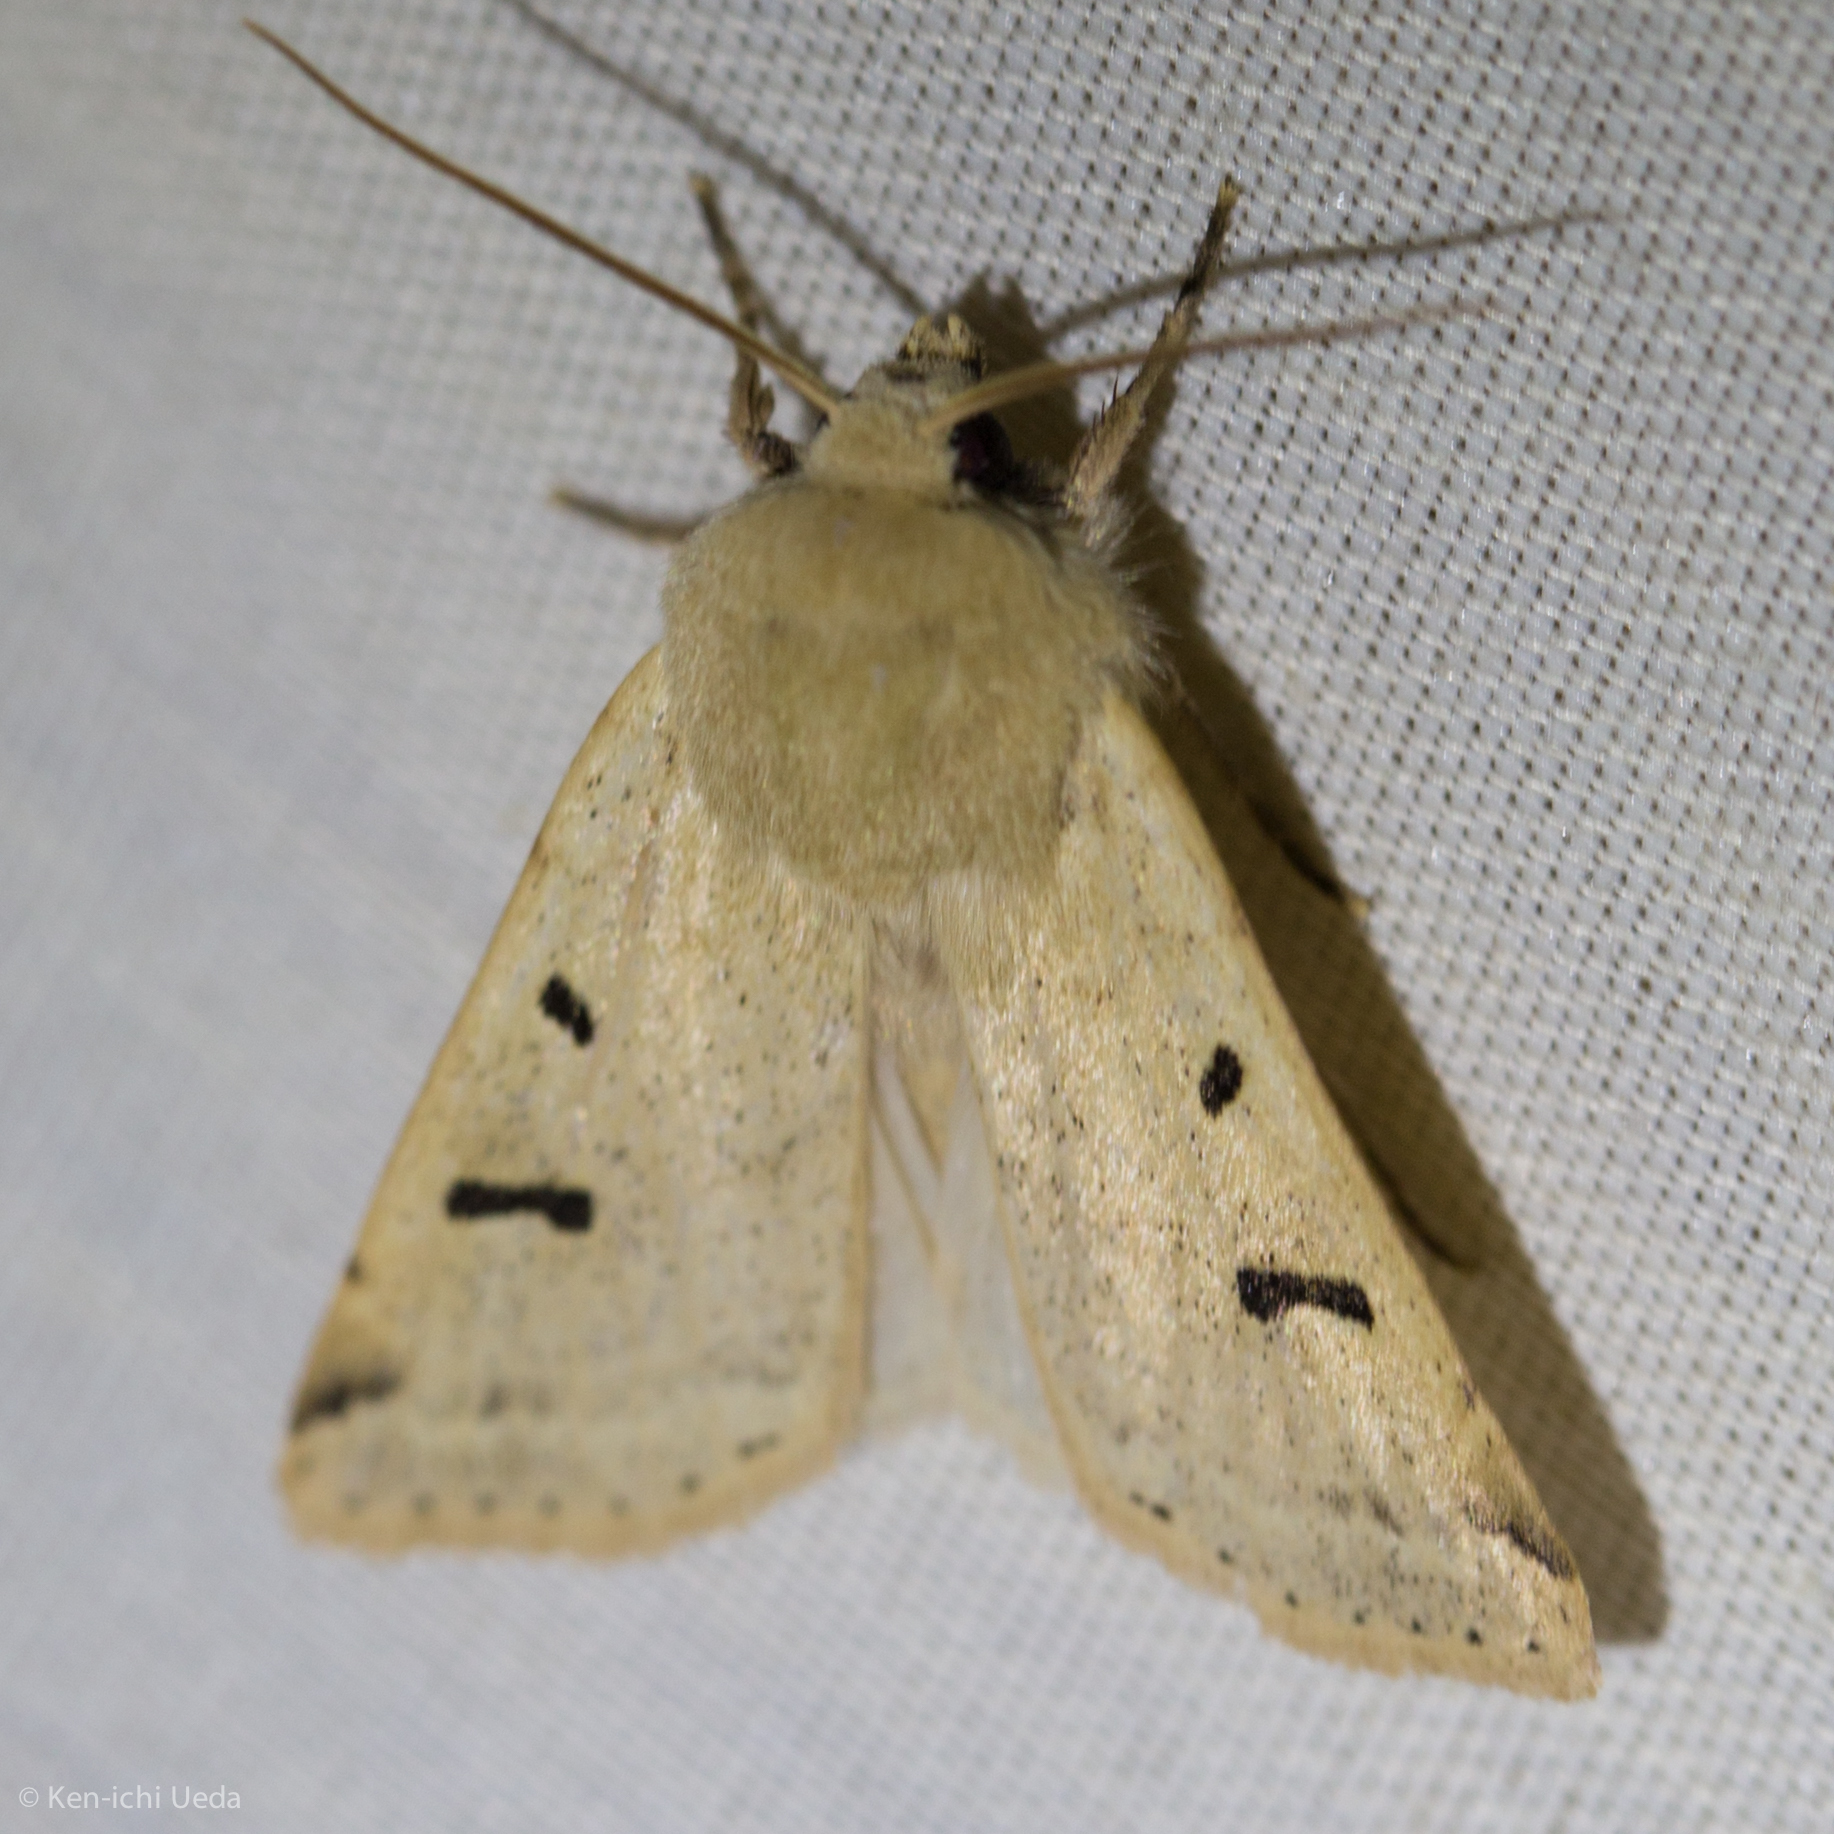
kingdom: Animalia
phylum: Arthropoda
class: Insecta
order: Lepidoptera
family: Noctuidae
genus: Dichagyris
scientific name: Dichagyris variabilis
